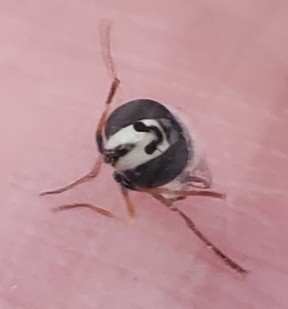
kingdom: Animalia
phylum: Arthropoda
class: Insecta
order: Diptera
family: Syrphidae
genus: Eupeodes
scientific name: Eupeodes volucris
